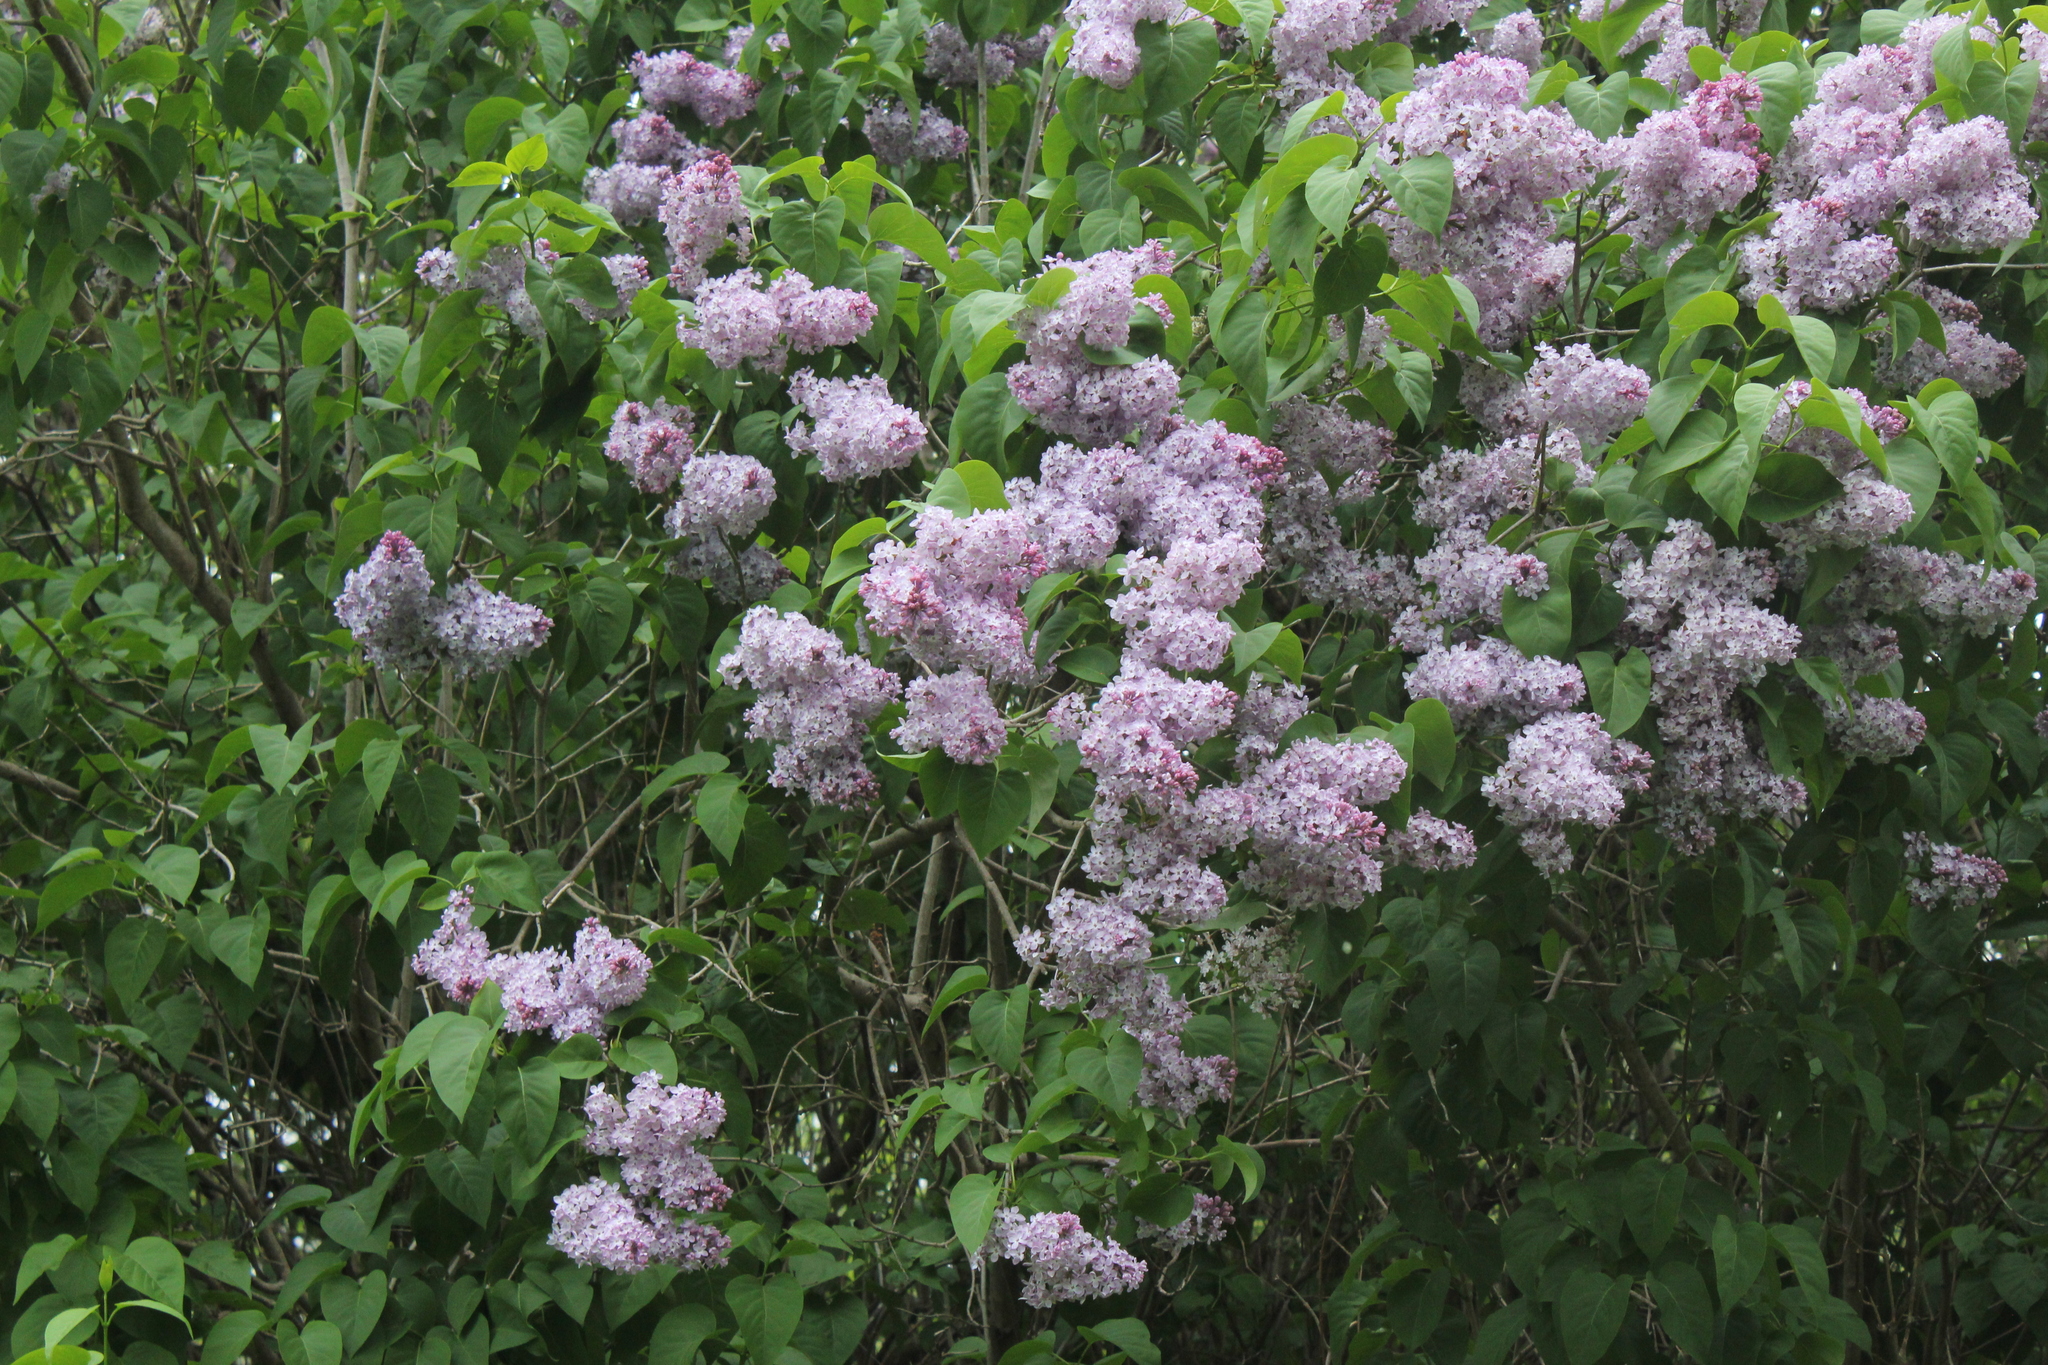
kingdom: Plantae
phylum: Tracheophyta
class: Magnoliopsida
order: Lamiales
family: Oleaceae
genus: Syringa
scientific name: Syringa vulgaris
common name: Common lilac
